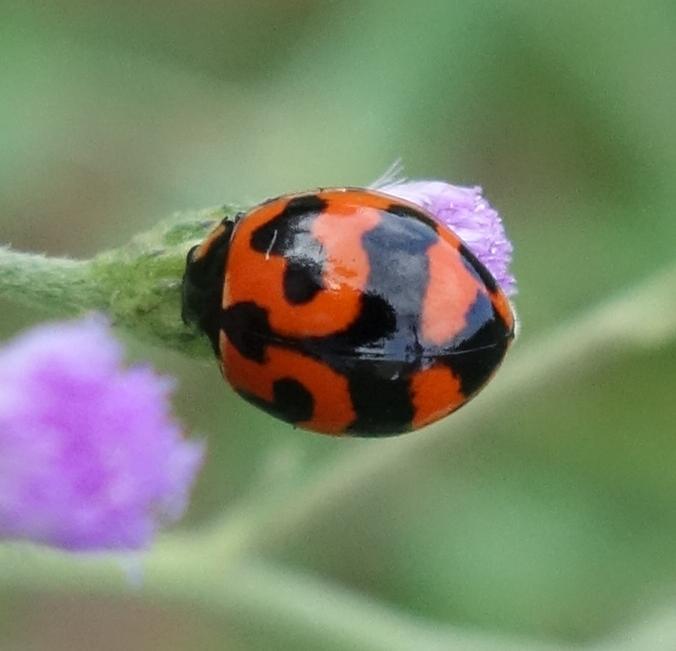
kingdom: Animalia
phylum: Arthropoda
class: Insecta
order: Coleoptera
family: Coccinellidae
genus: Coccinella
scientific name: Coccinella transversalis
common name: Transverse lady beetle
